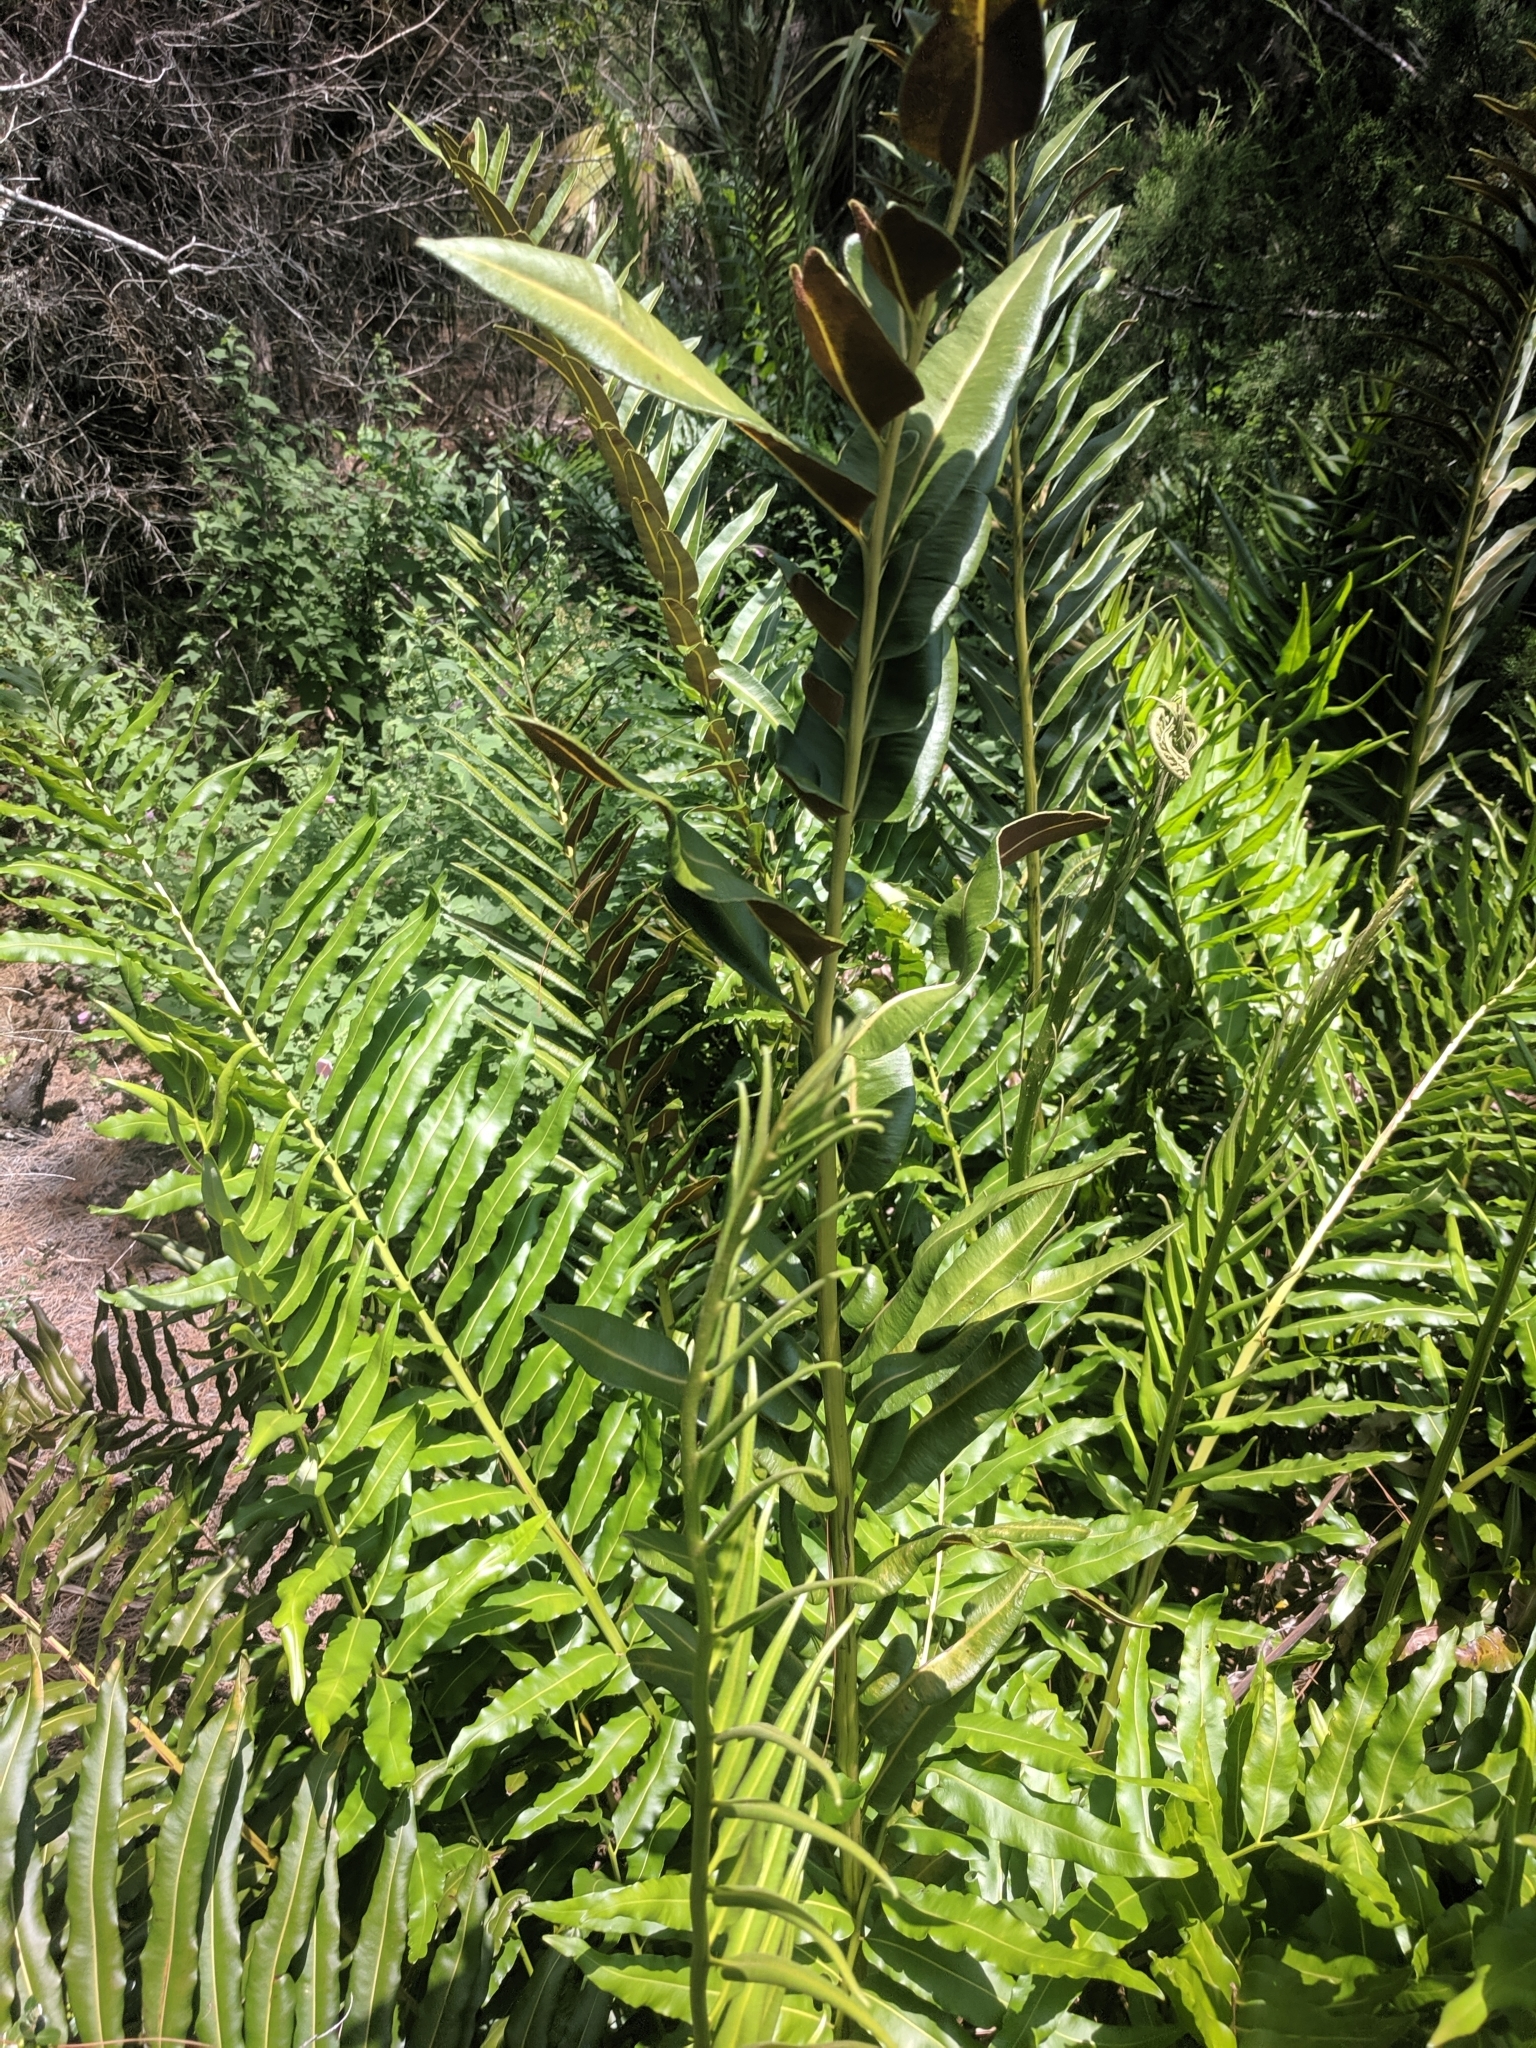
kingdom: Plantae
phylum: Tracheophyta
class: Polypodiopsida
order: Polypodiales
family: Pteridaceae
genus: Acrostichum
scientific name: Acrostichum danaeifolium
